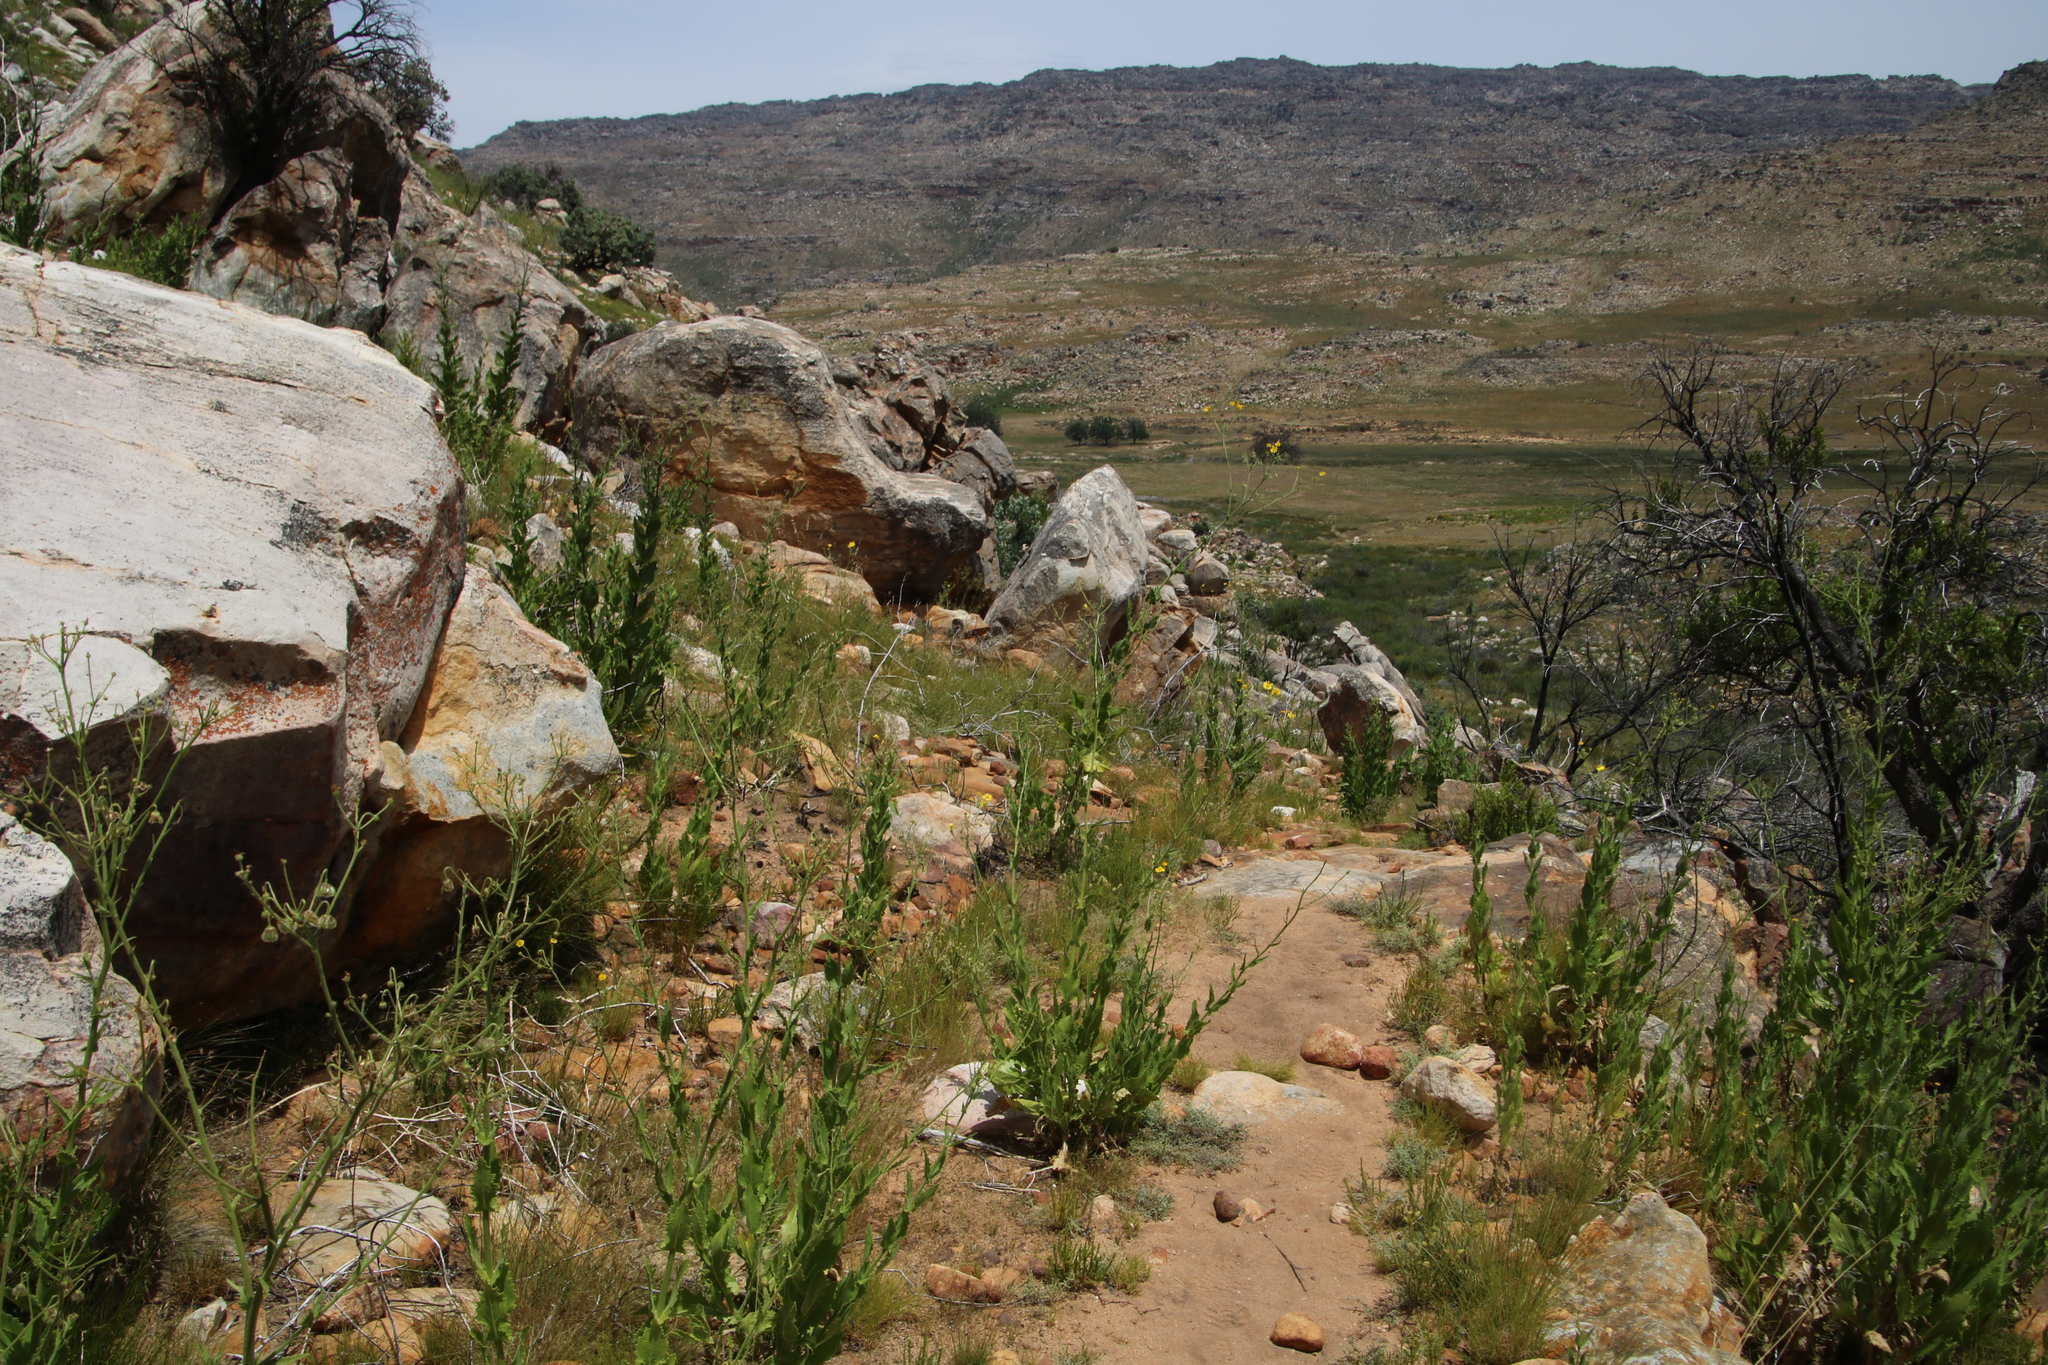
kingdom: Plantae
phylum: Tracheophyta
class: Magnoliopsida
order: Asterales
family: Asteraceae
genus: Othonna
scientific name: Othonna parviflora
